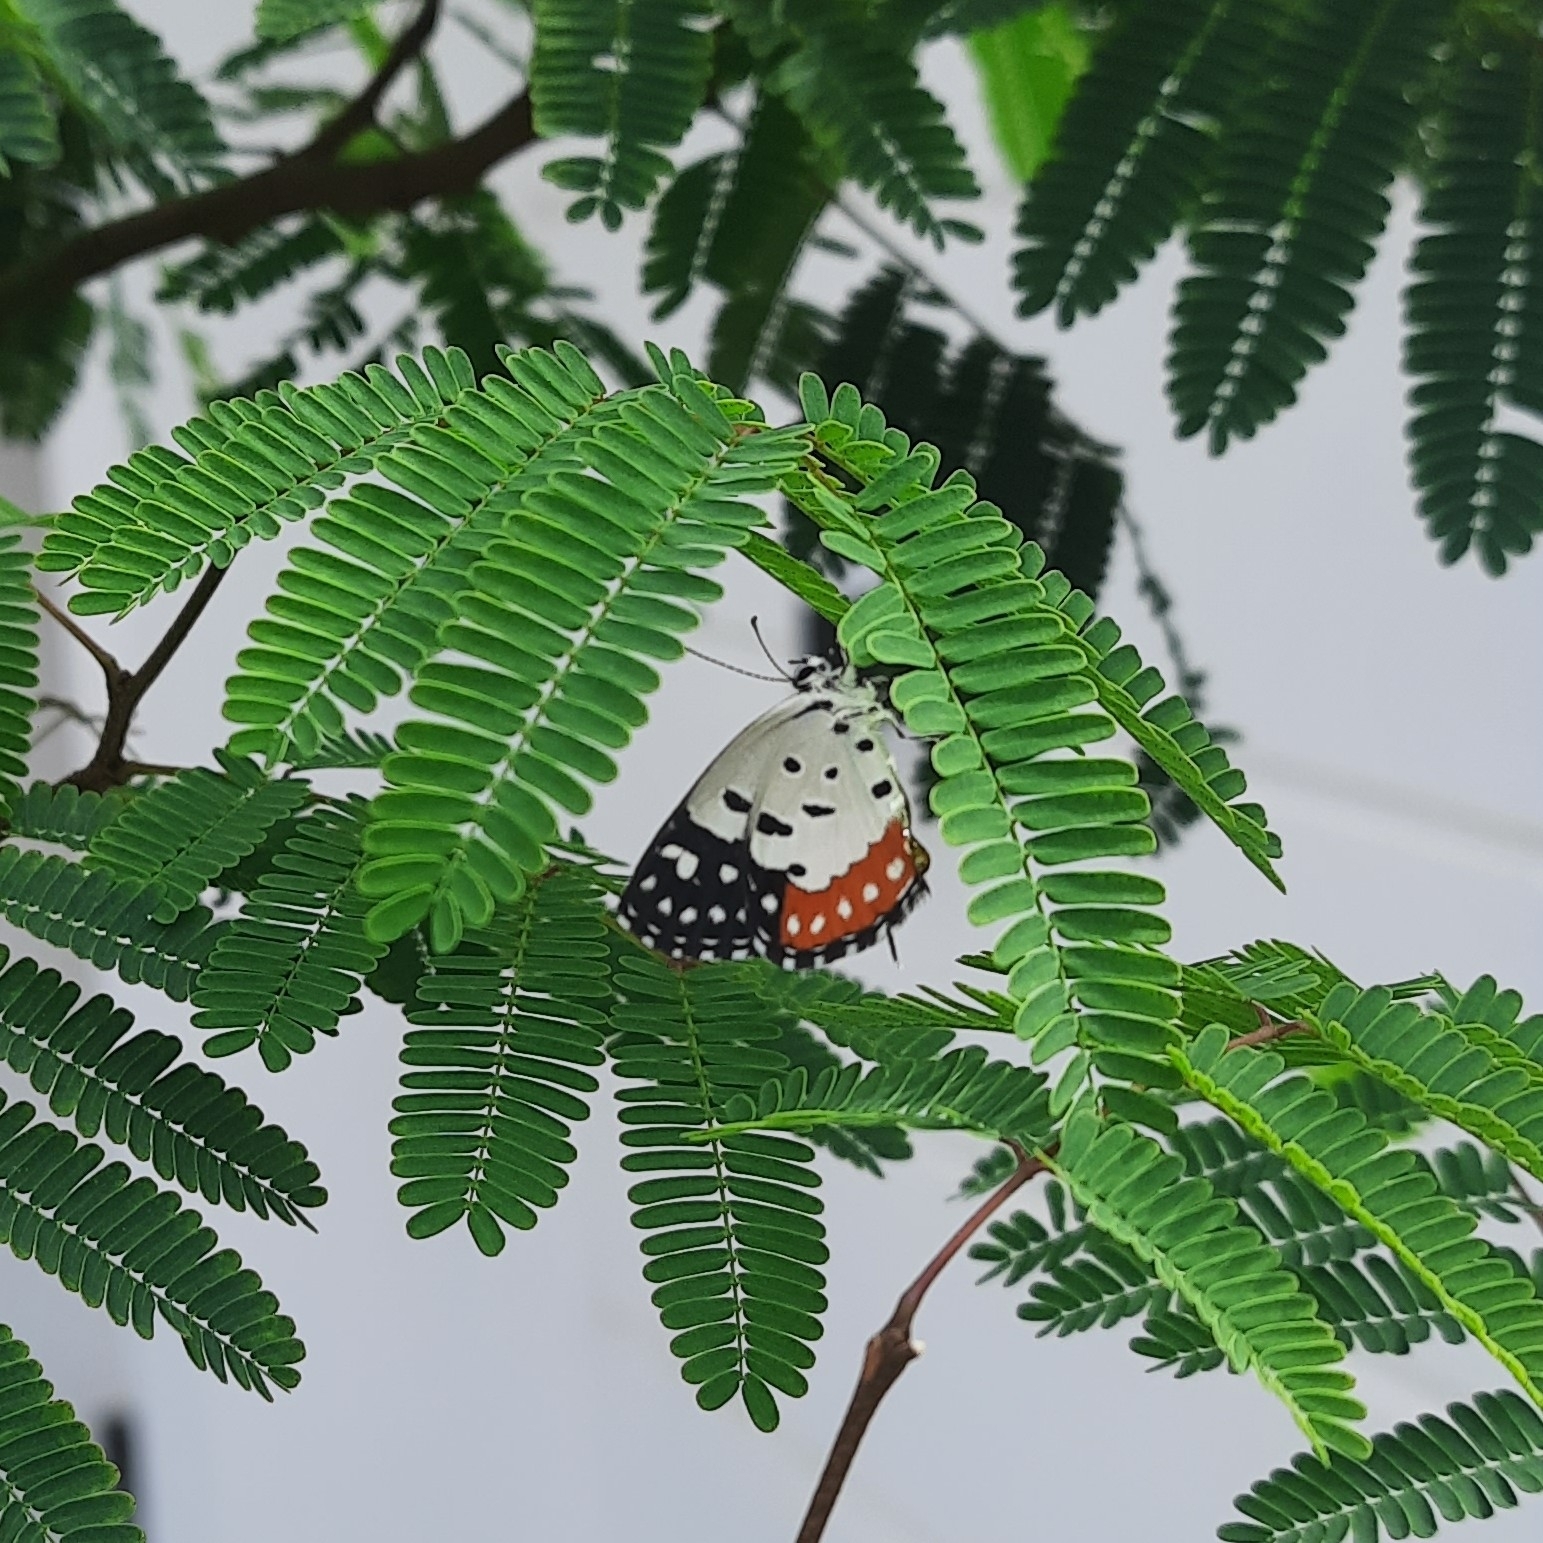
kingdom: Animalia
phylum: Arthropoda
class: Insecta
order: Lepidoptera
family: Lycaenidae
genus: Talicada
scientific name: Talicada nyseus
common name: Red pierrot
